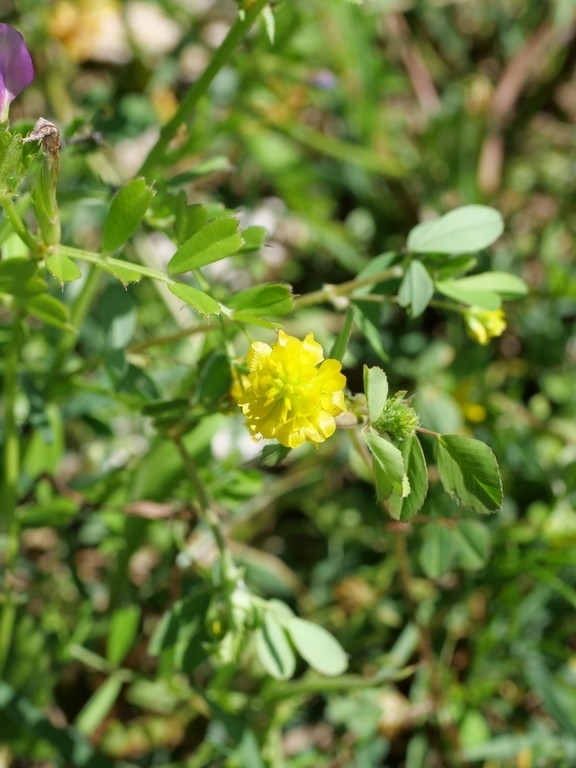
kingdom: Plantae
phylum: Tracheophyta
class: Magnoliopsida
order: Fabales
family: Fabaceae
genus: Trifolium
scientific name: Trifolium campestre
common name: Field clover
